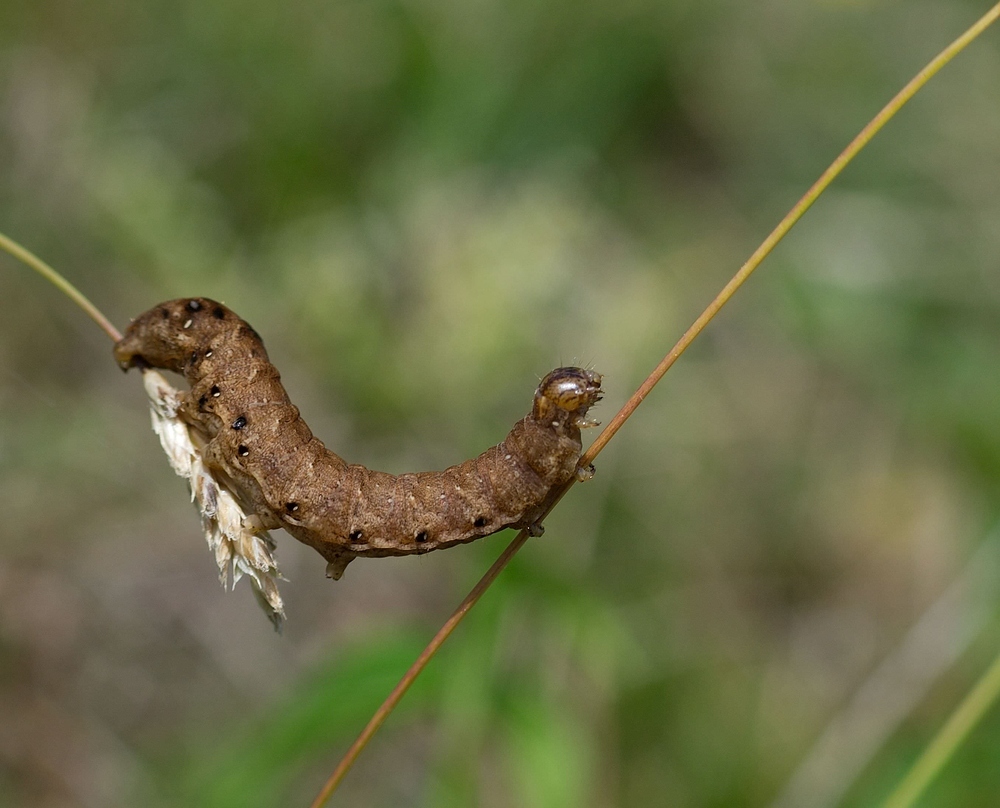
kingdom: Animalia
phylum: Arthropoda
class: Insecta
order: Lepidoptera
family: Noctuidae
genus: Noctua
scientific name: Noctua fimbriata
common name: Broad-bordered yellow underwing
